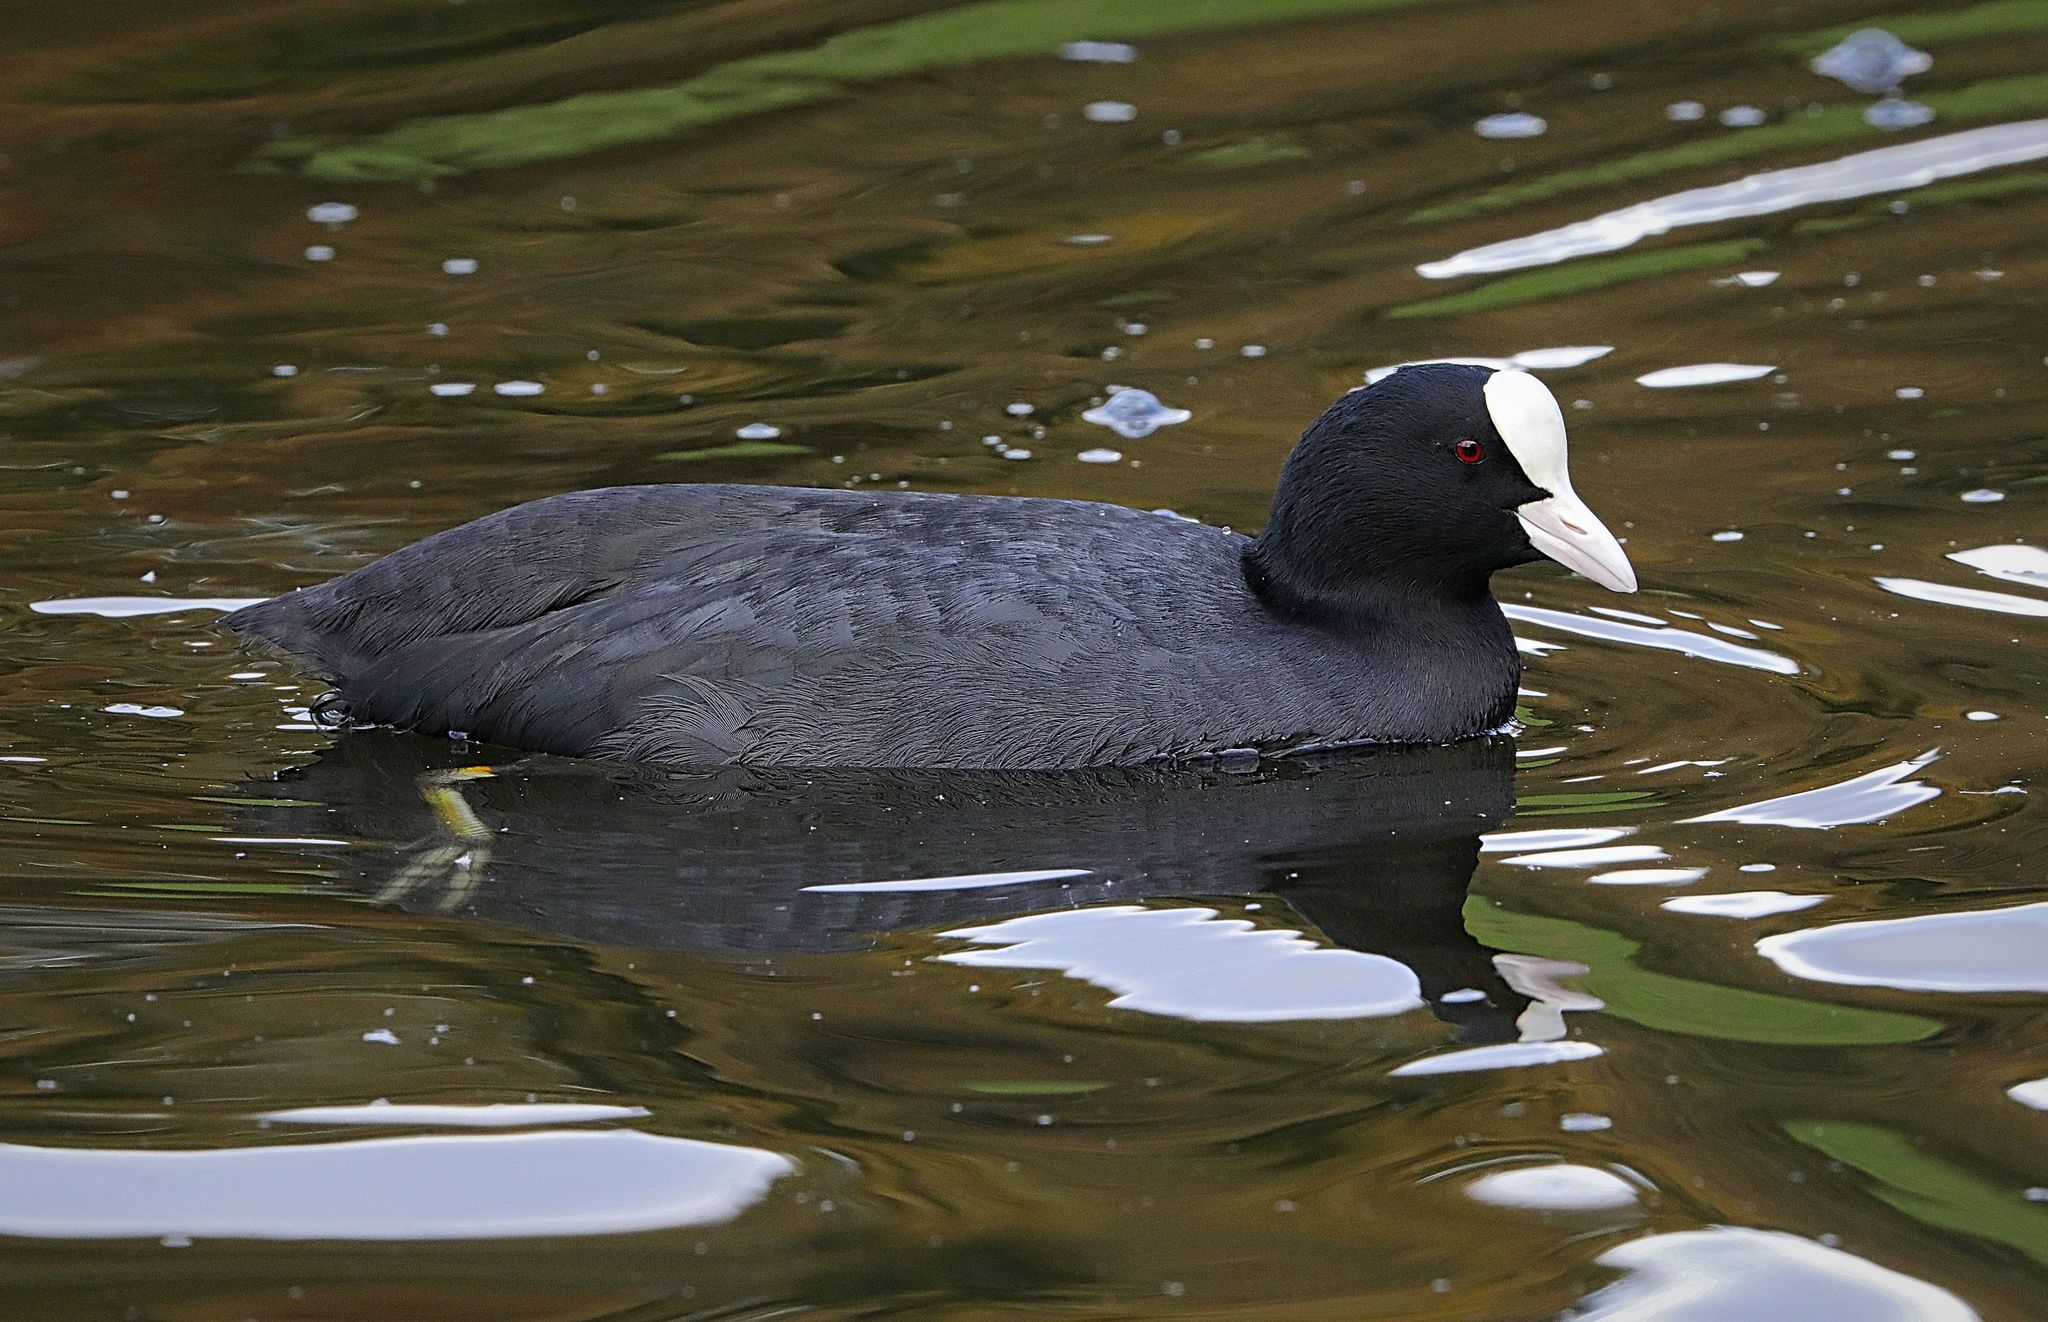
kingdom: Animalia
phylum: Chordata
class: Aves
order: Gruiformes
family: Rallidae
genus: Fulica
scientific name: Fulica atra
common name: Eurasian coot
